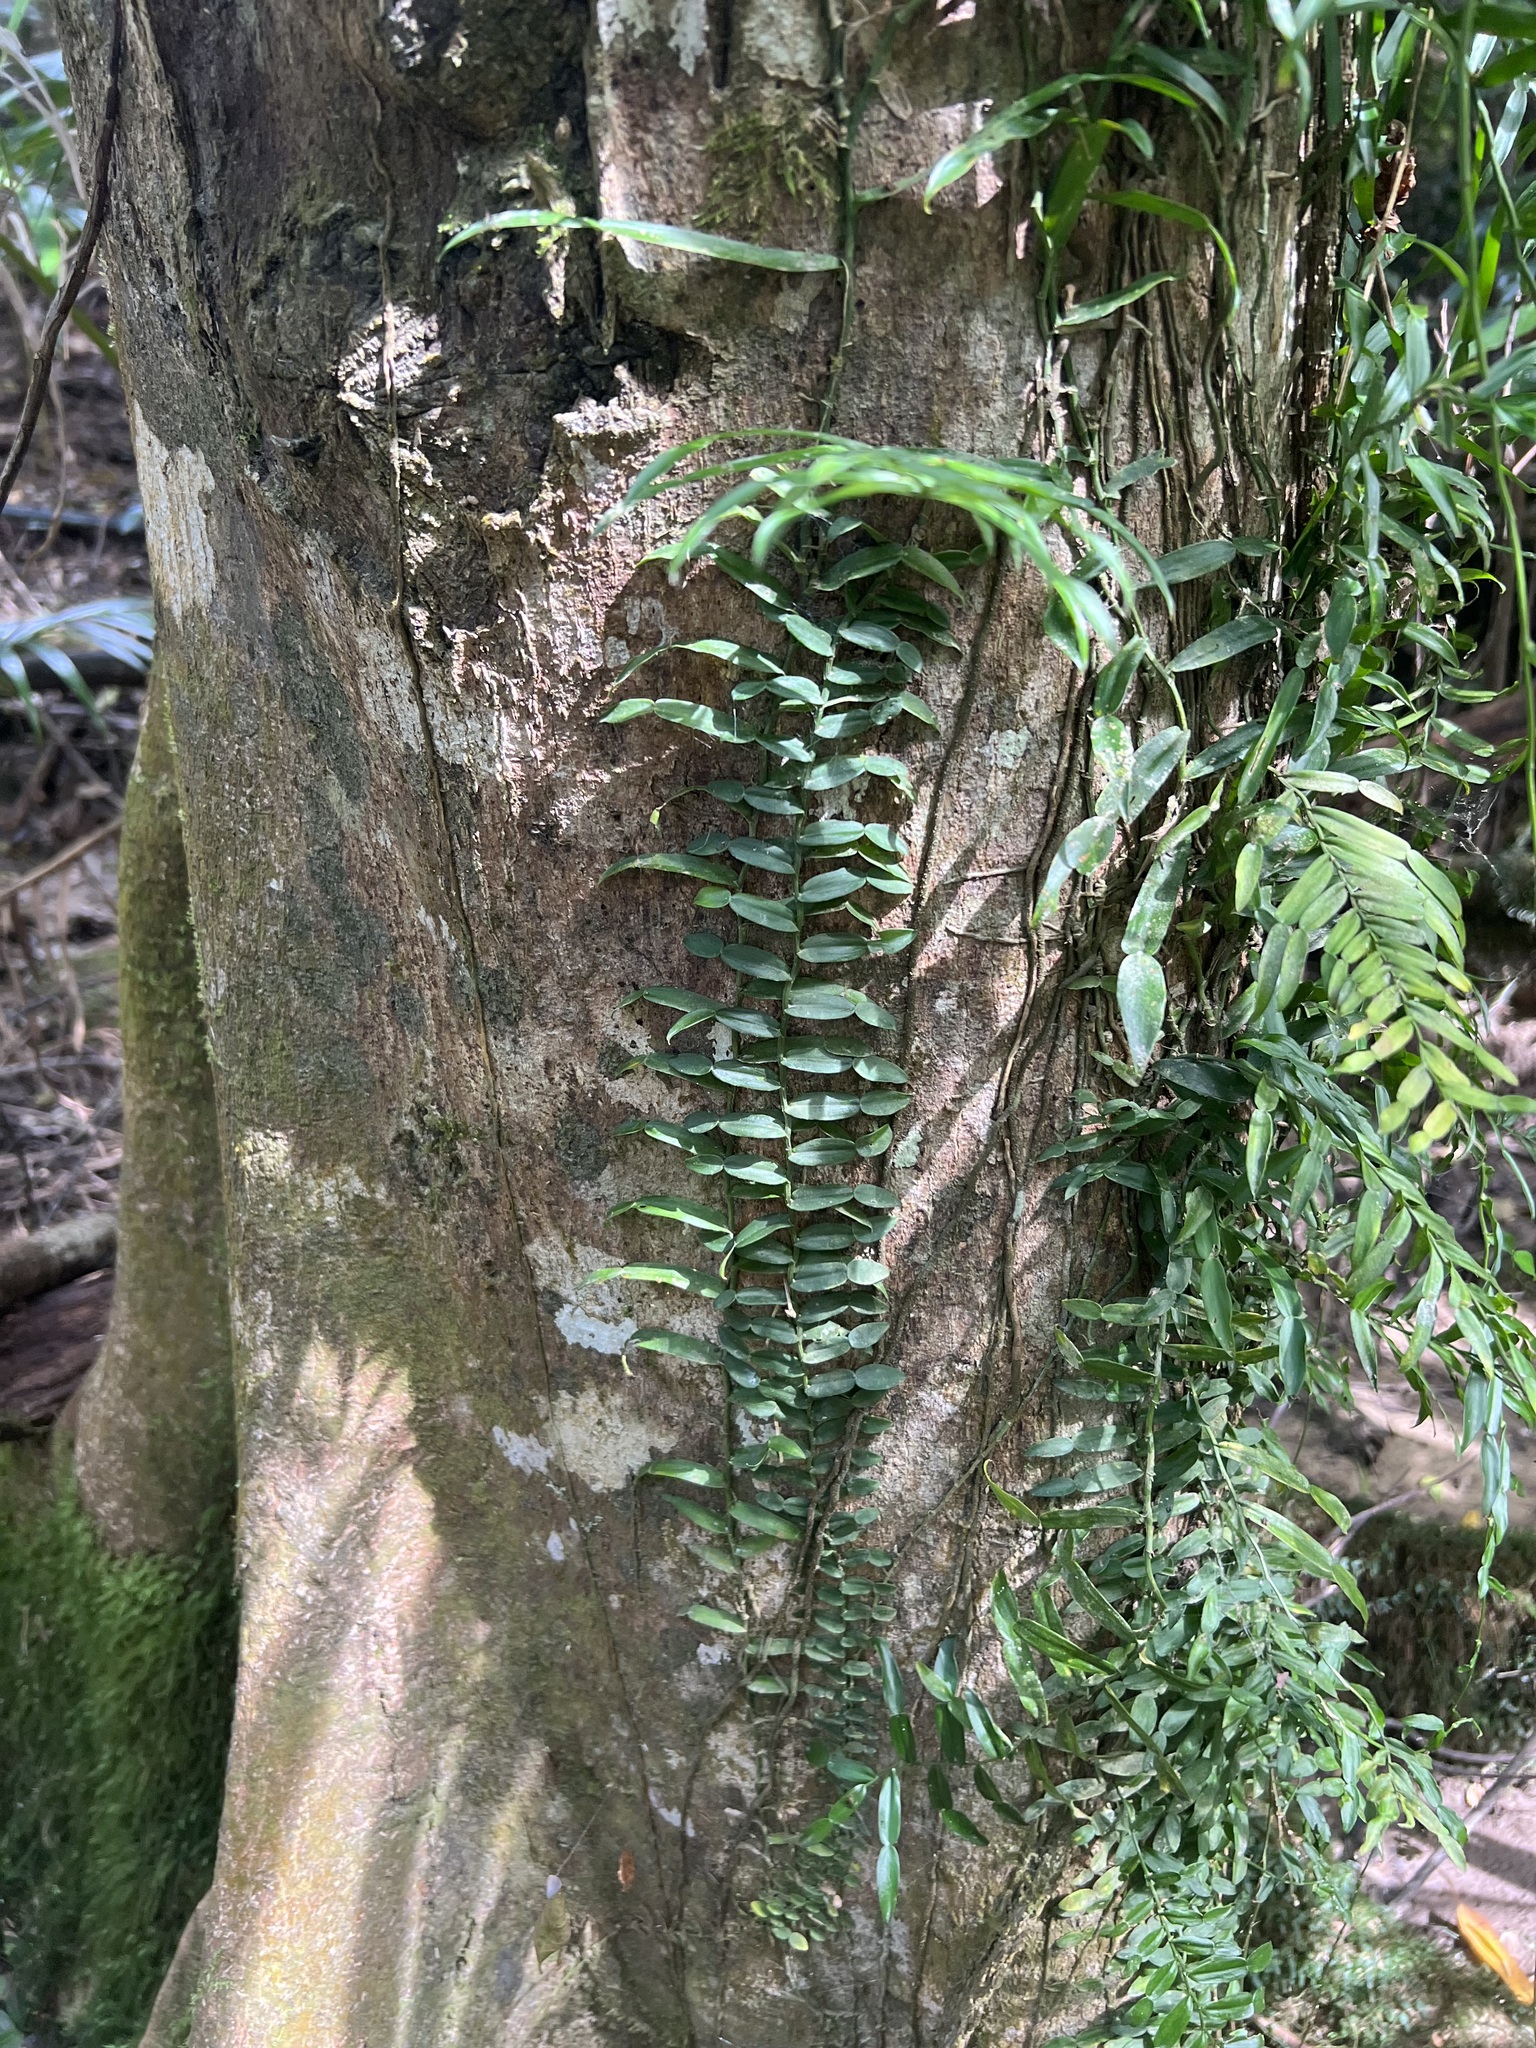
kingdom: Plantae
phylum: Tracheophyta
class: Liliopsida
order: Alismatales
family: Araceae
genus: Pothos
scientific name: Pothos longipes
